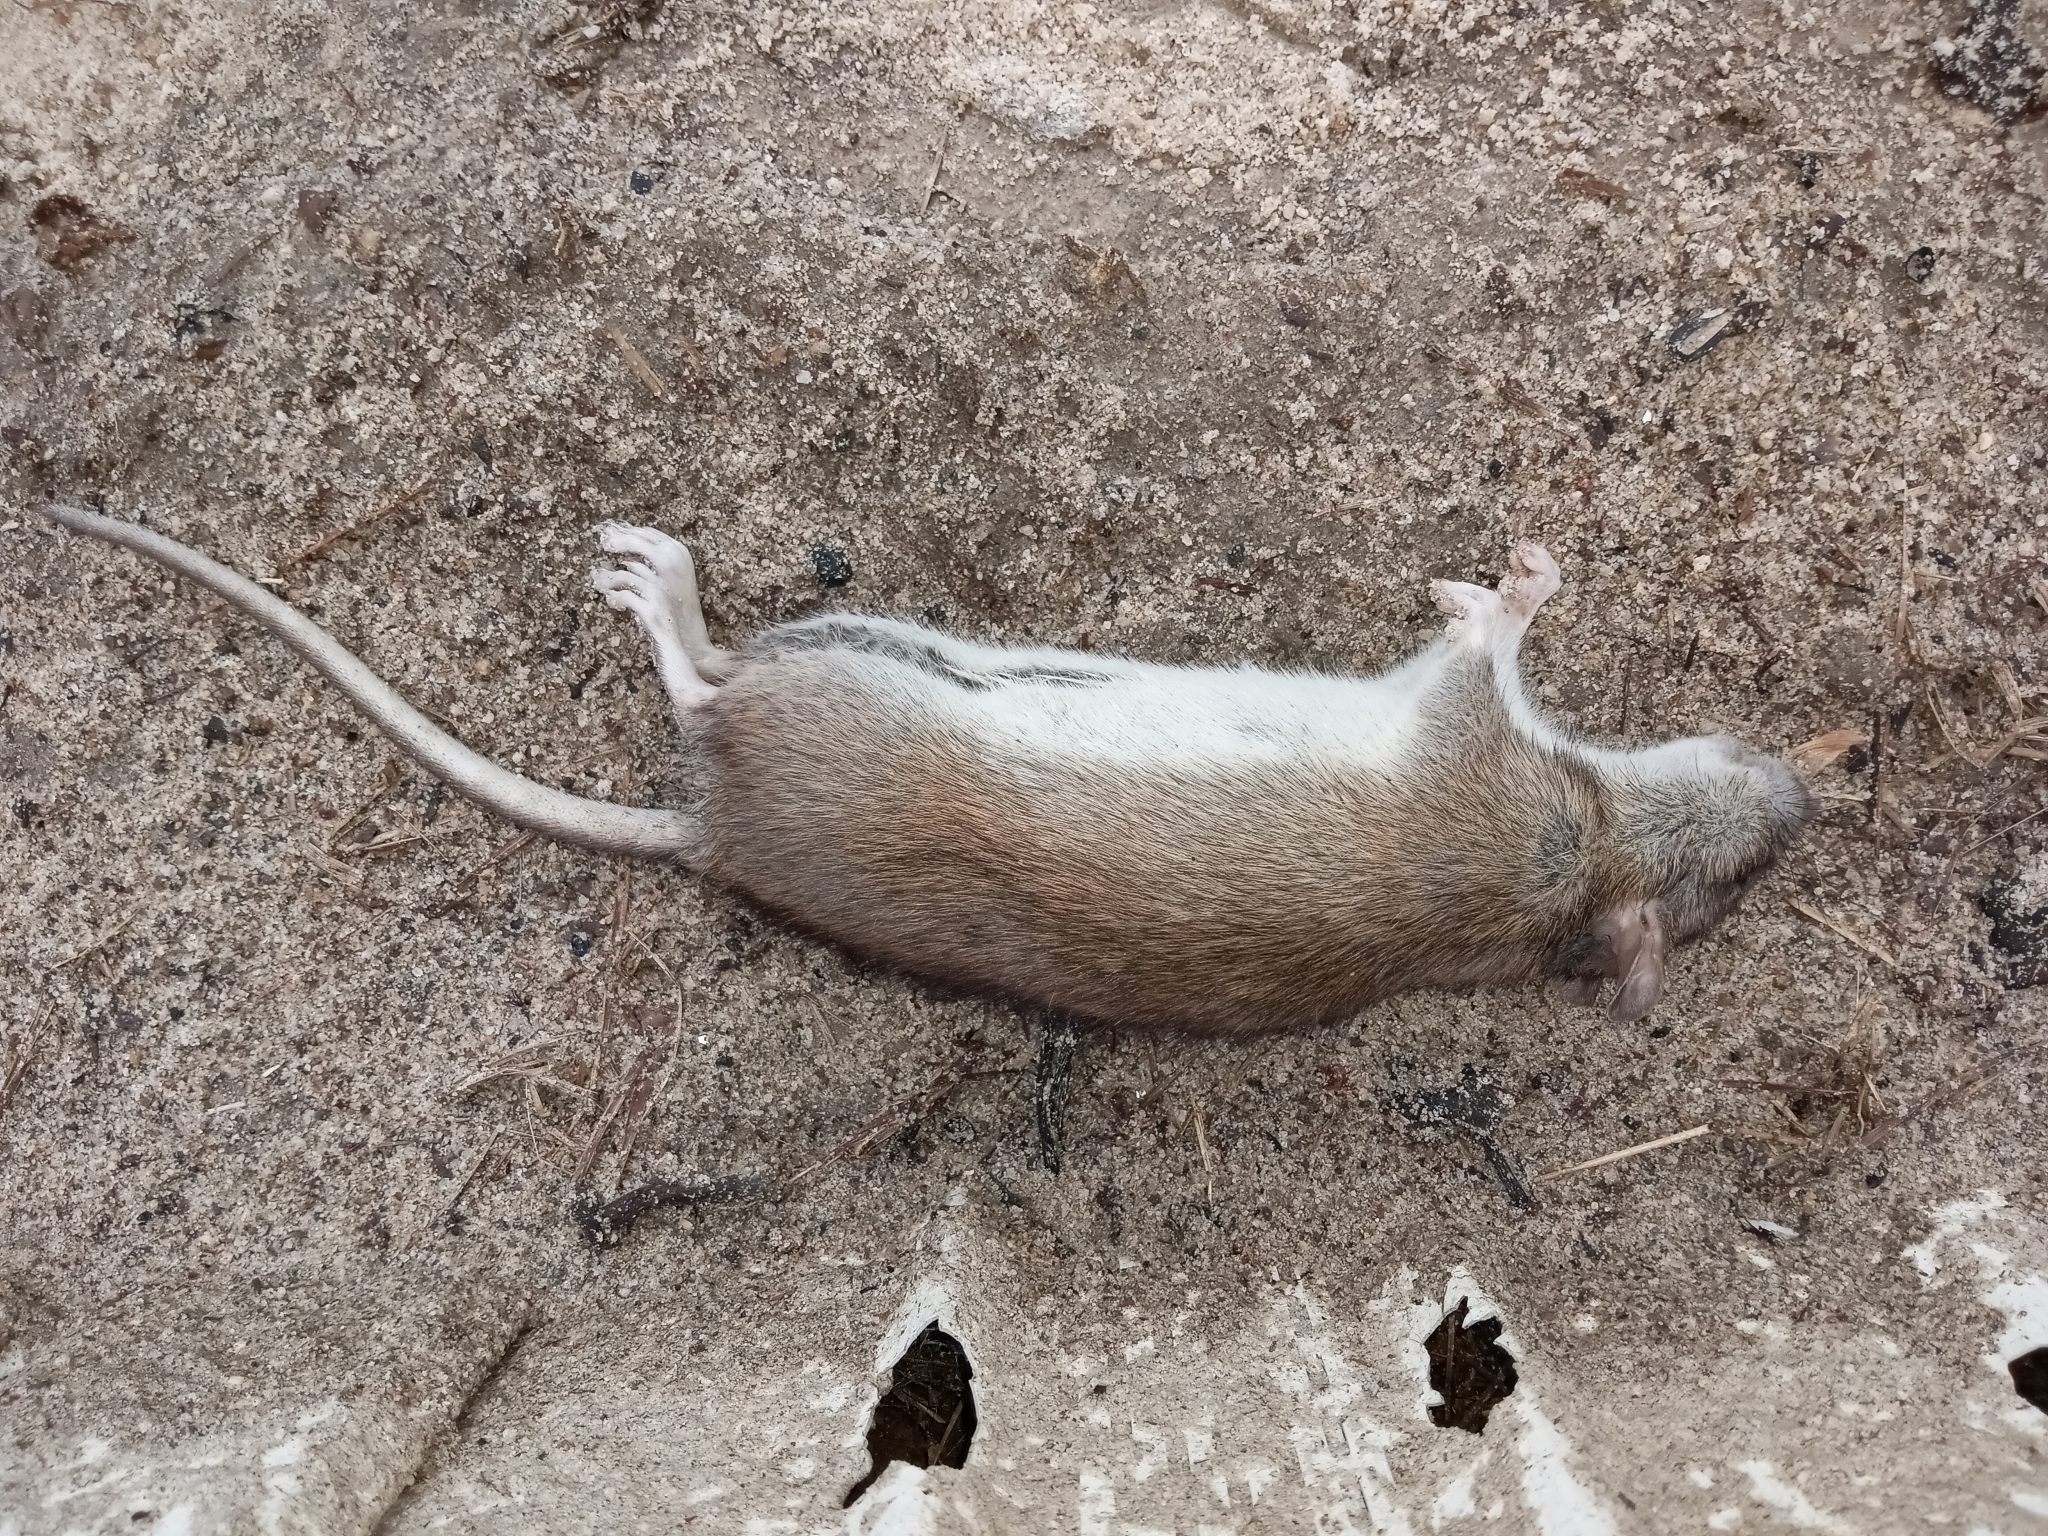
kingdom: Animalia
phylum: Chordata
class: Mammalia
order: Rodentia
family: Muridae
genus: Rattus
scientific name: Rattus norvegicus
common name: Brown rat
